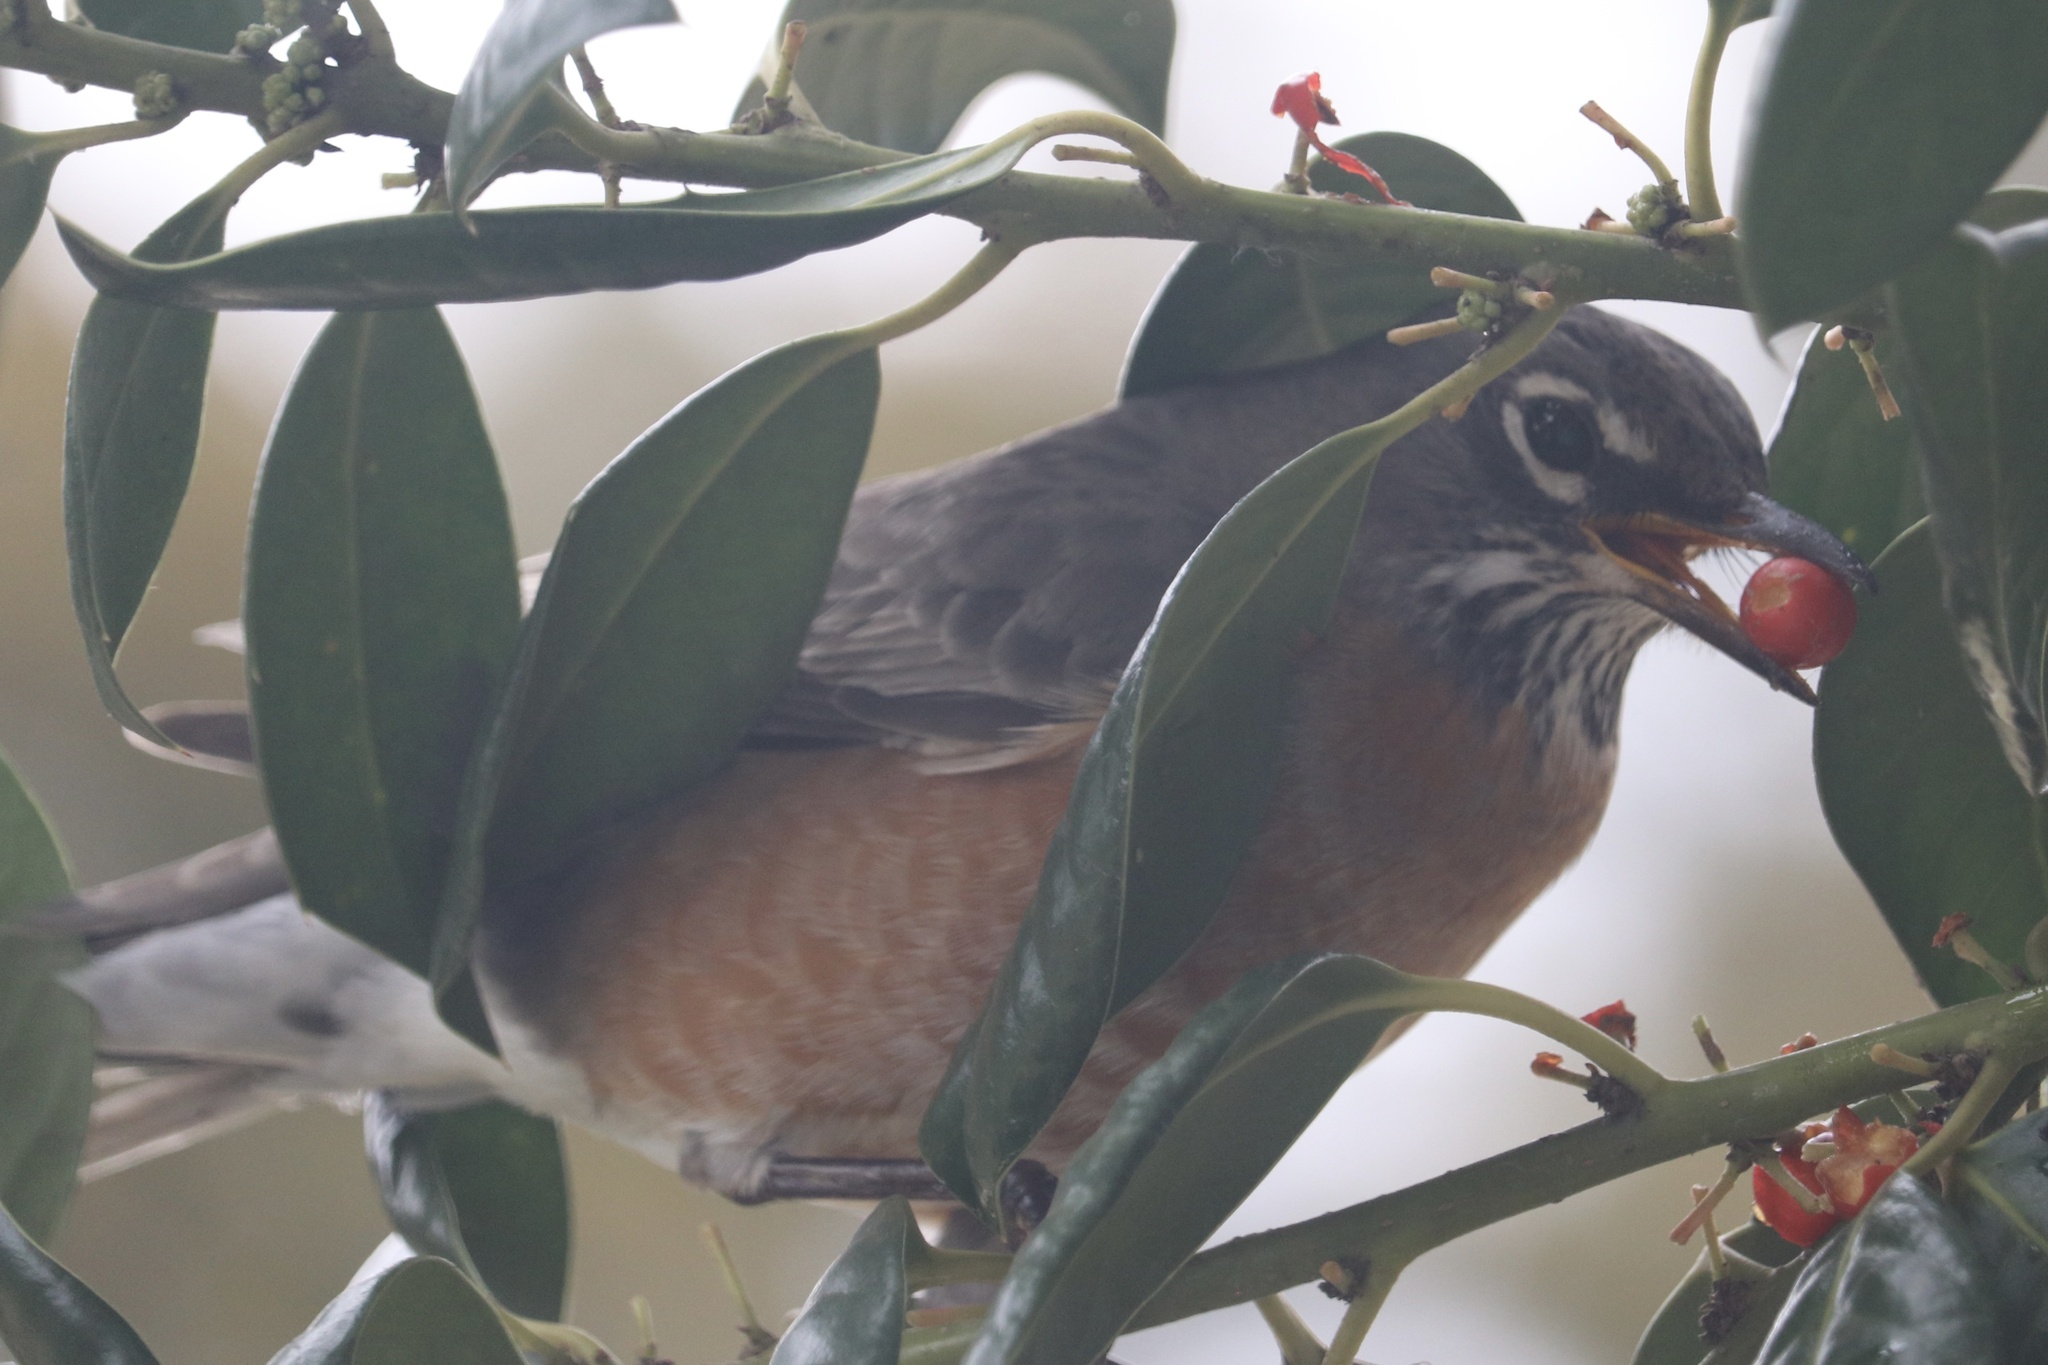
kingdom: Animalia
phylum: Chordata
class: Aves
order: Passeriformes
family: Turdidae
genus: Turdus
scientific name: Turdus migratorius
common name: American robin
